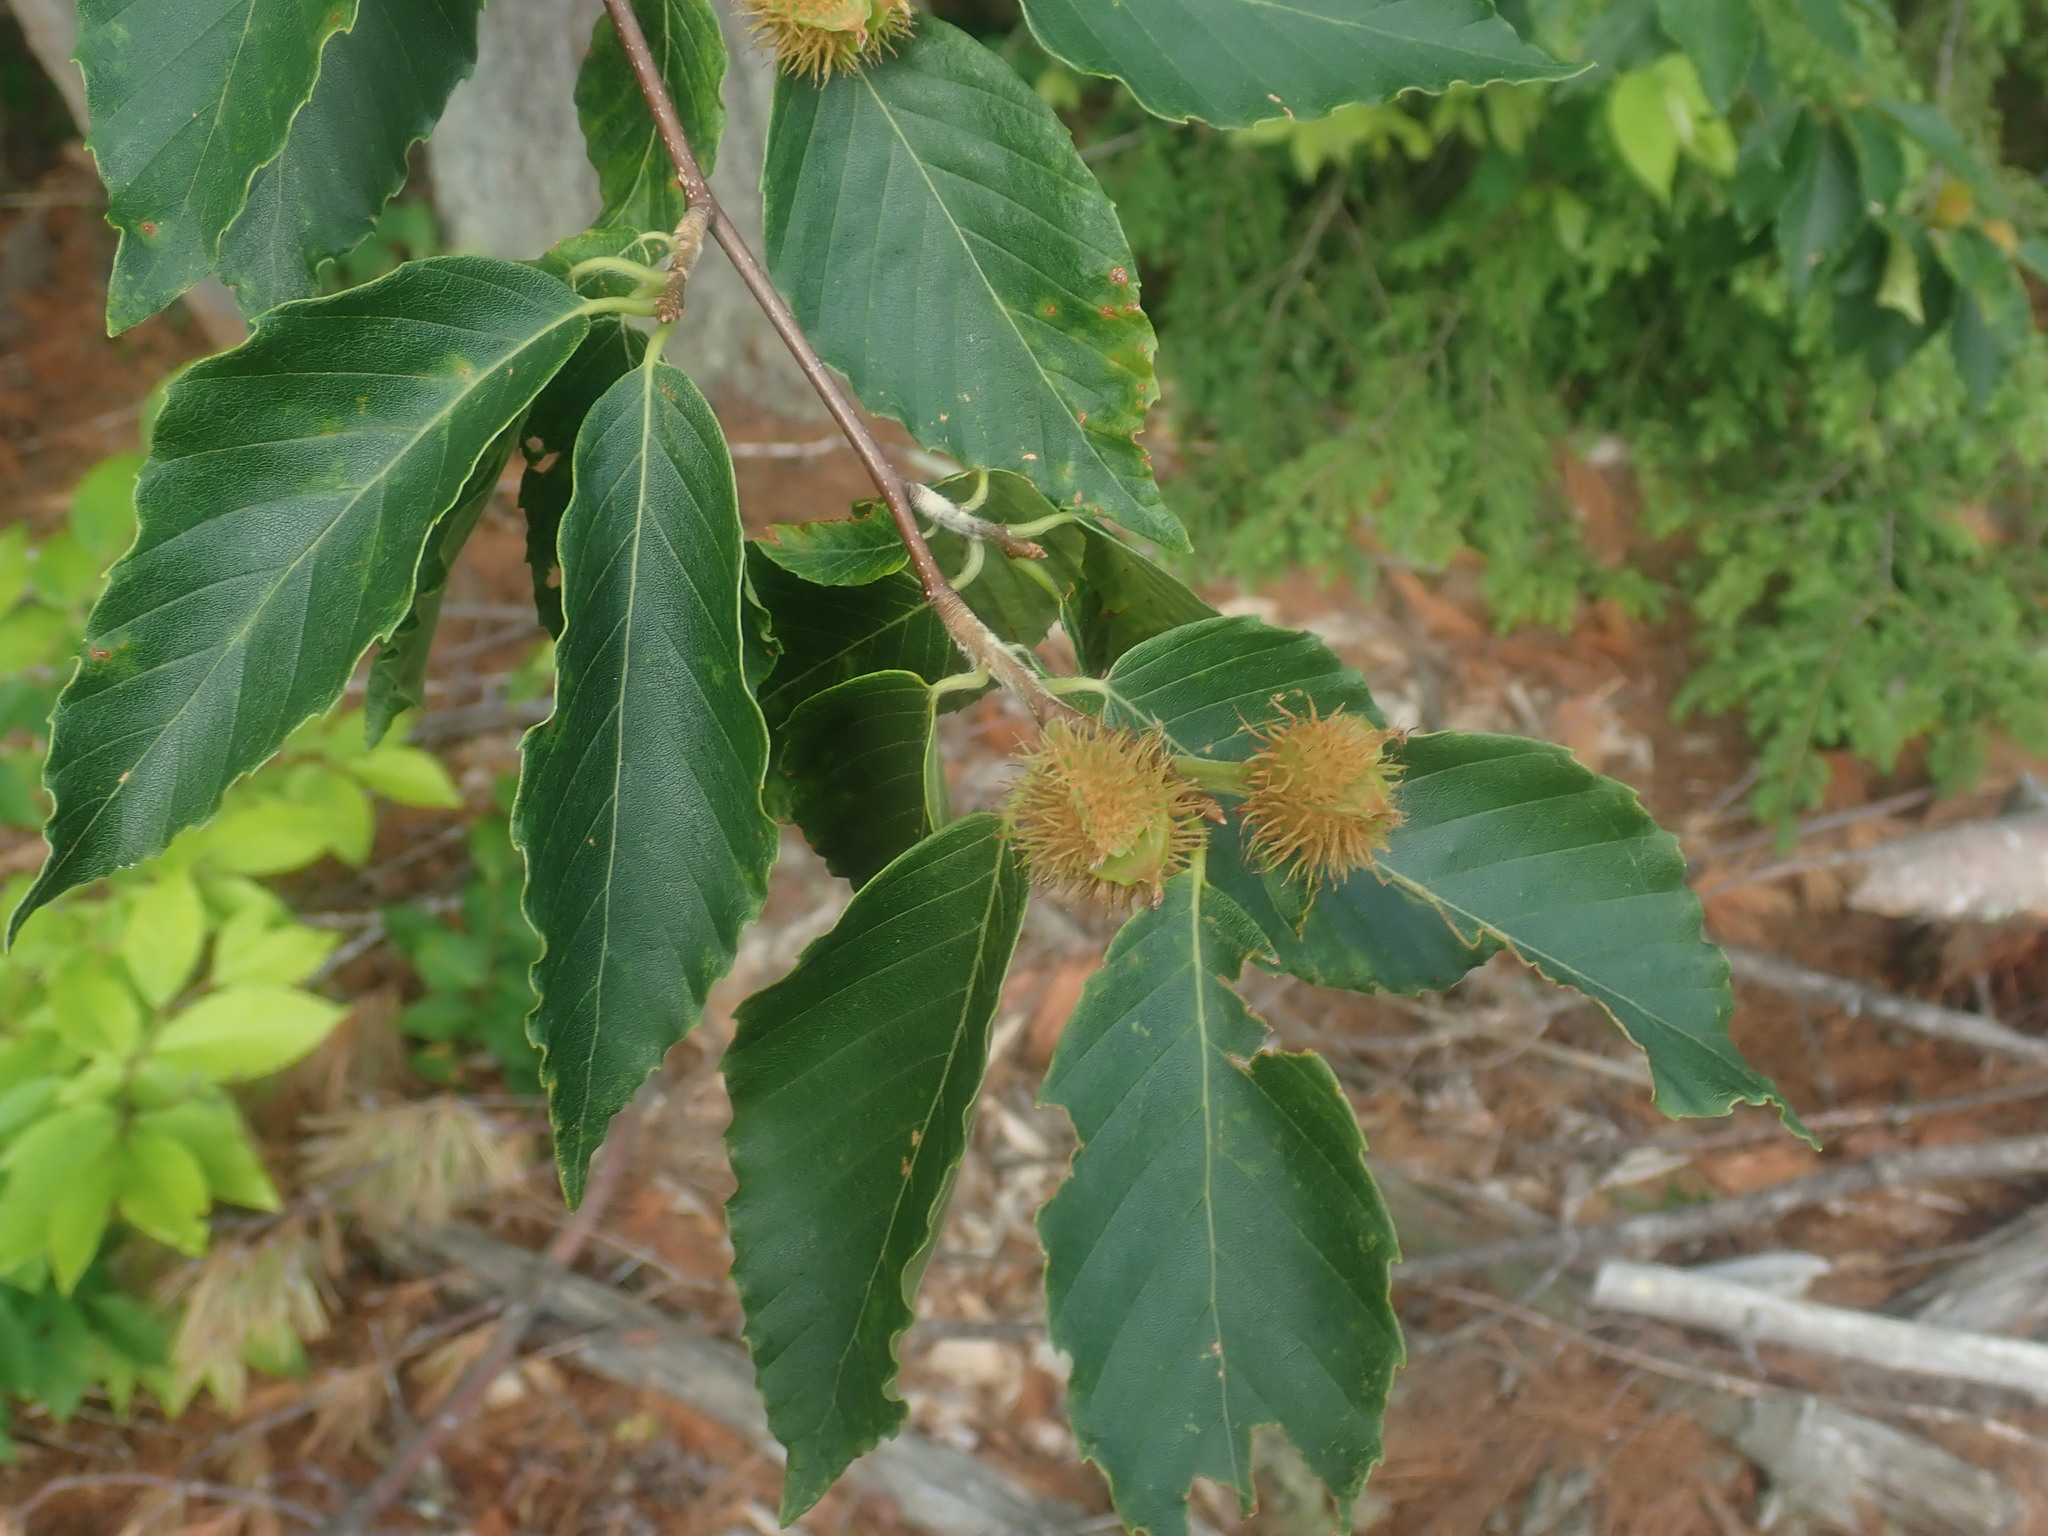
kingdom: Plantae
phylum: Tracheophyta
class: Magnoliopsida
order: Fagales
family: Fagaceae
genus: Fagus
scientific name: Fagus grandifolia
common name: American beech
